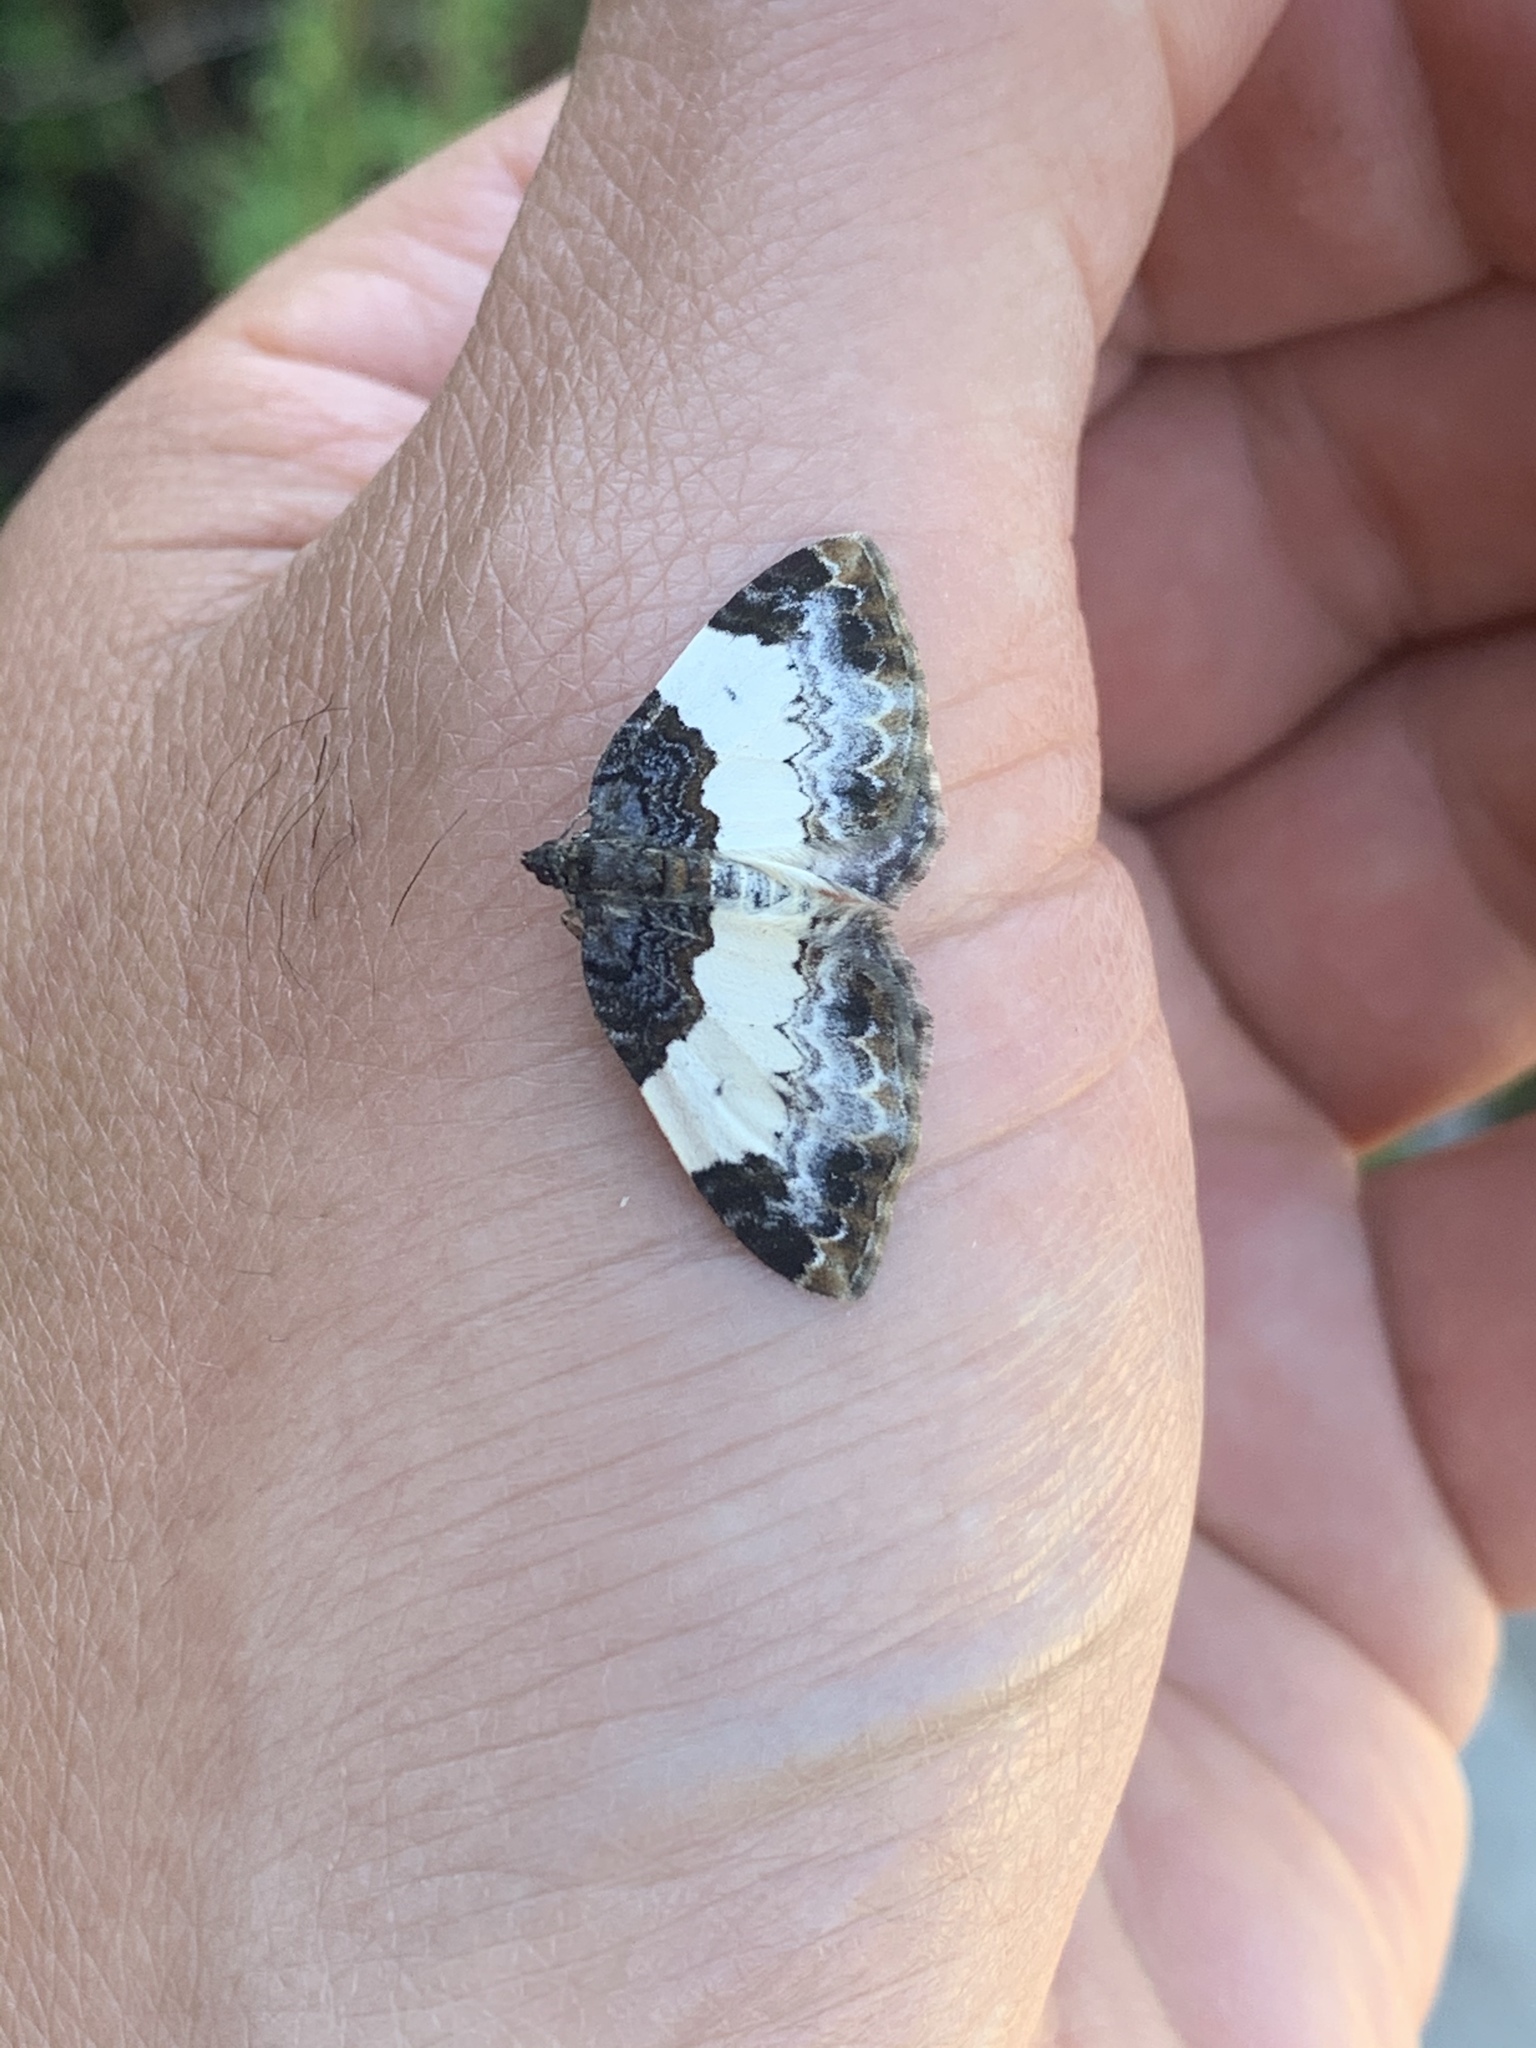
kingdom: Animalia
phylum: Arthropoda
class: Insecta
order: Lepidoptera
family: Geometridae
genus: Mesoleuca
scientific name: Mesoleuca ruficillata
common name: White-ribboned carpet moth
